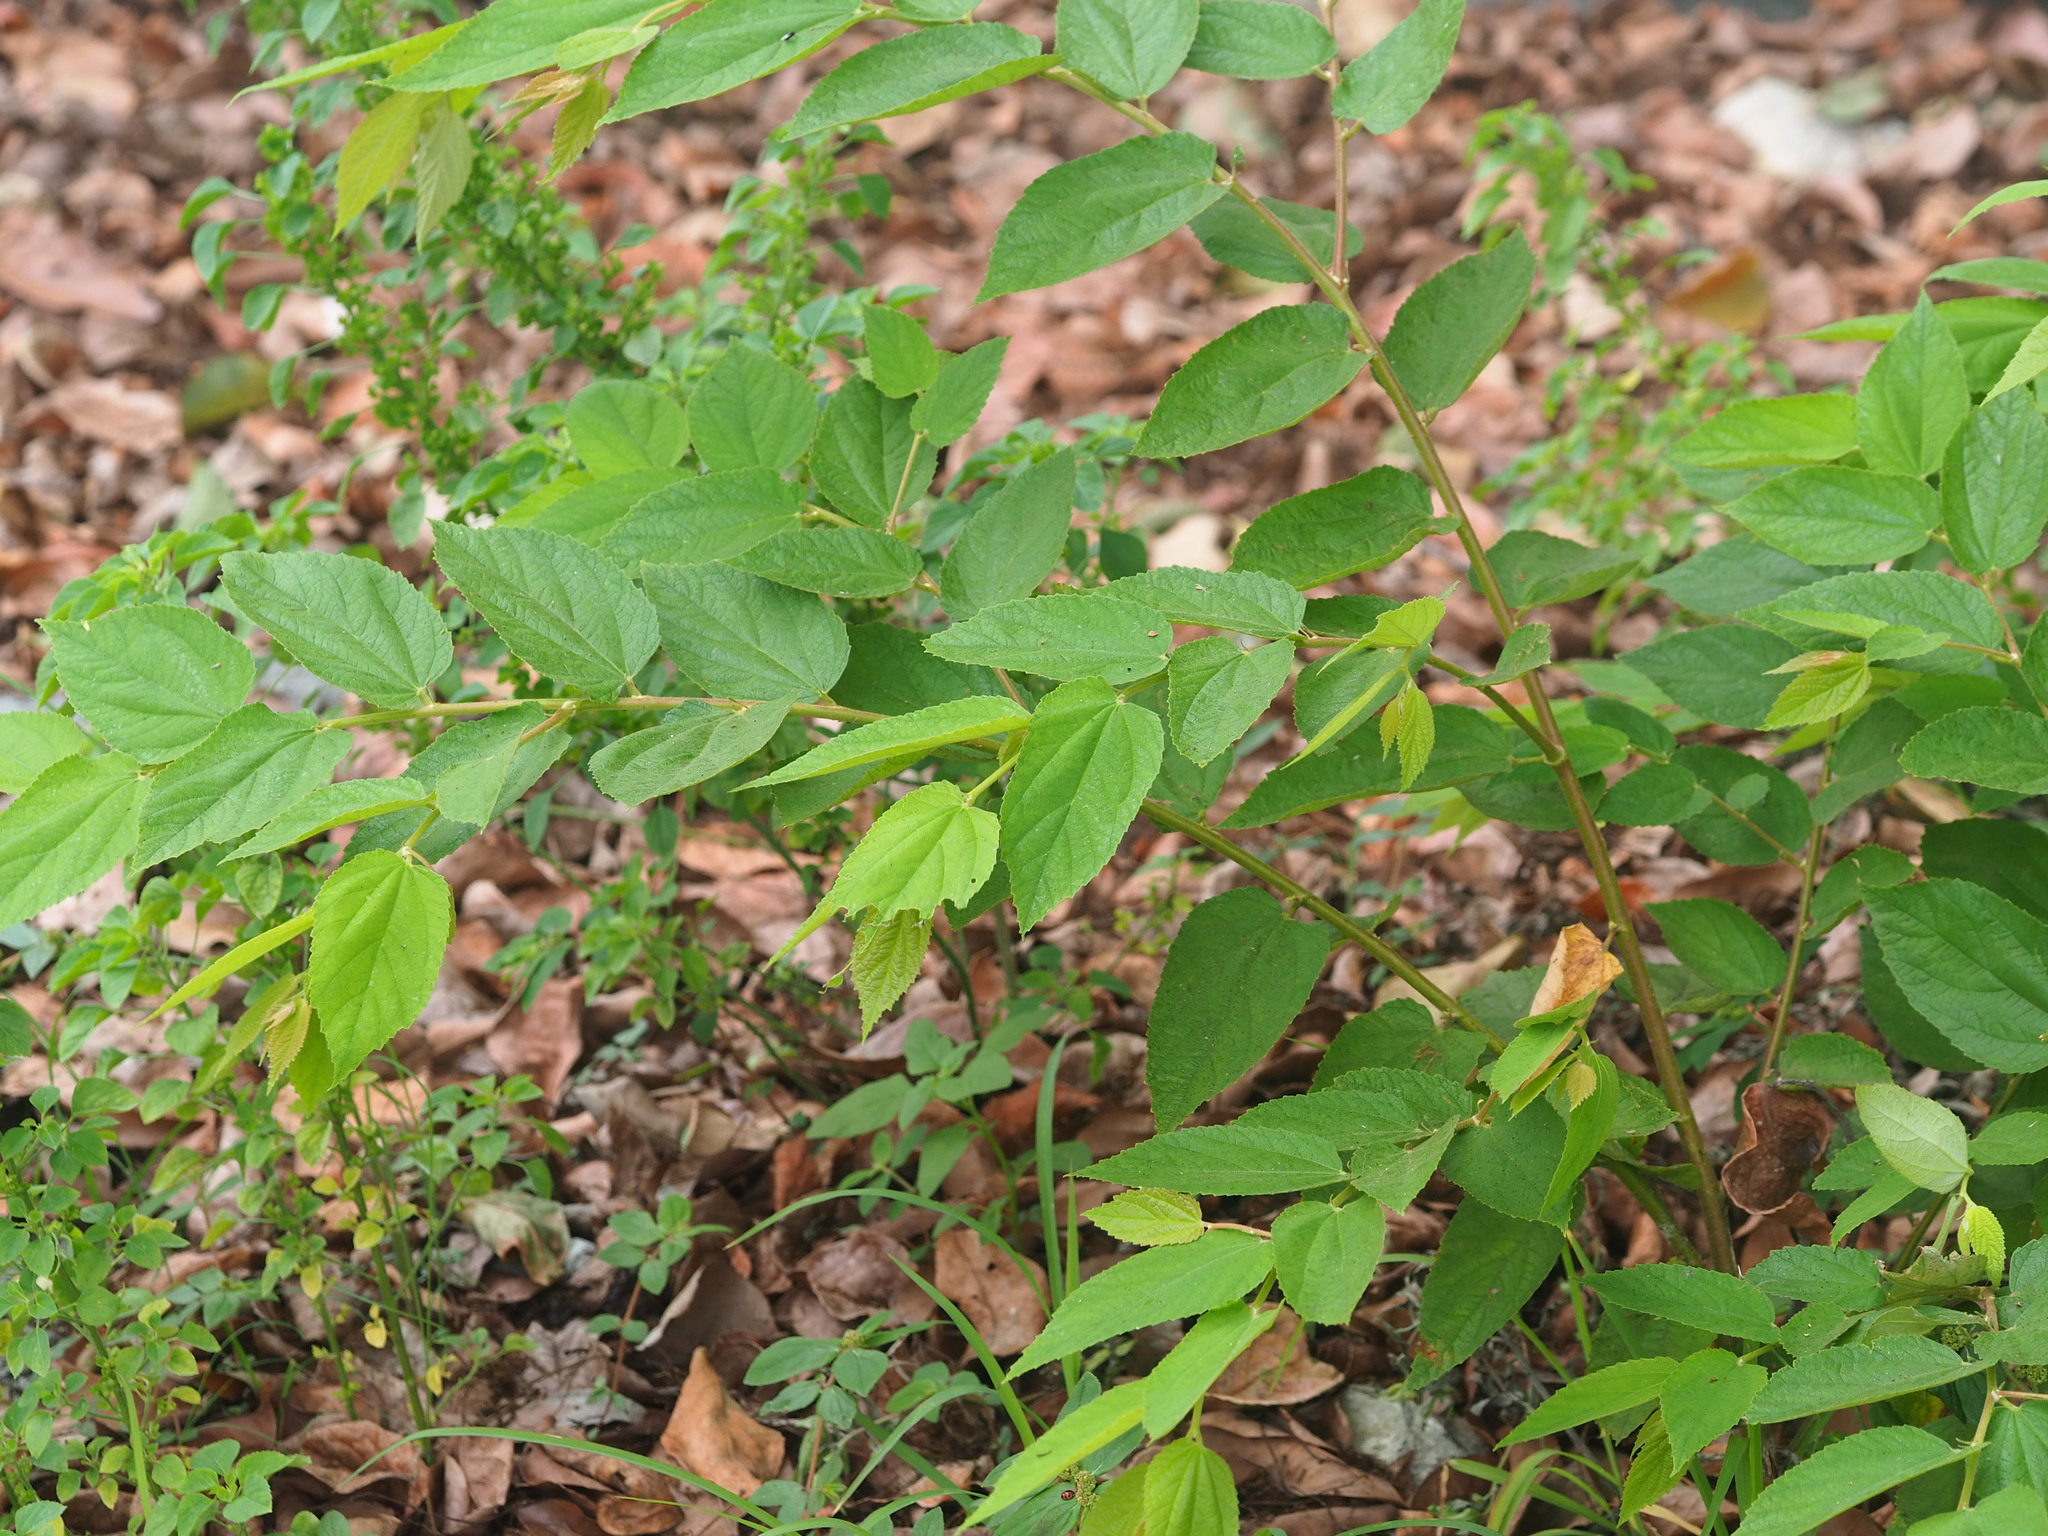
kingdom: Plantae
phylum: Tracheophyta
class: Magnoliopsida
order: Malvales
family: Muntingiaceae
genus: Muntingia
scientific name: Muntingia calabura
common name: Strawberrytree
